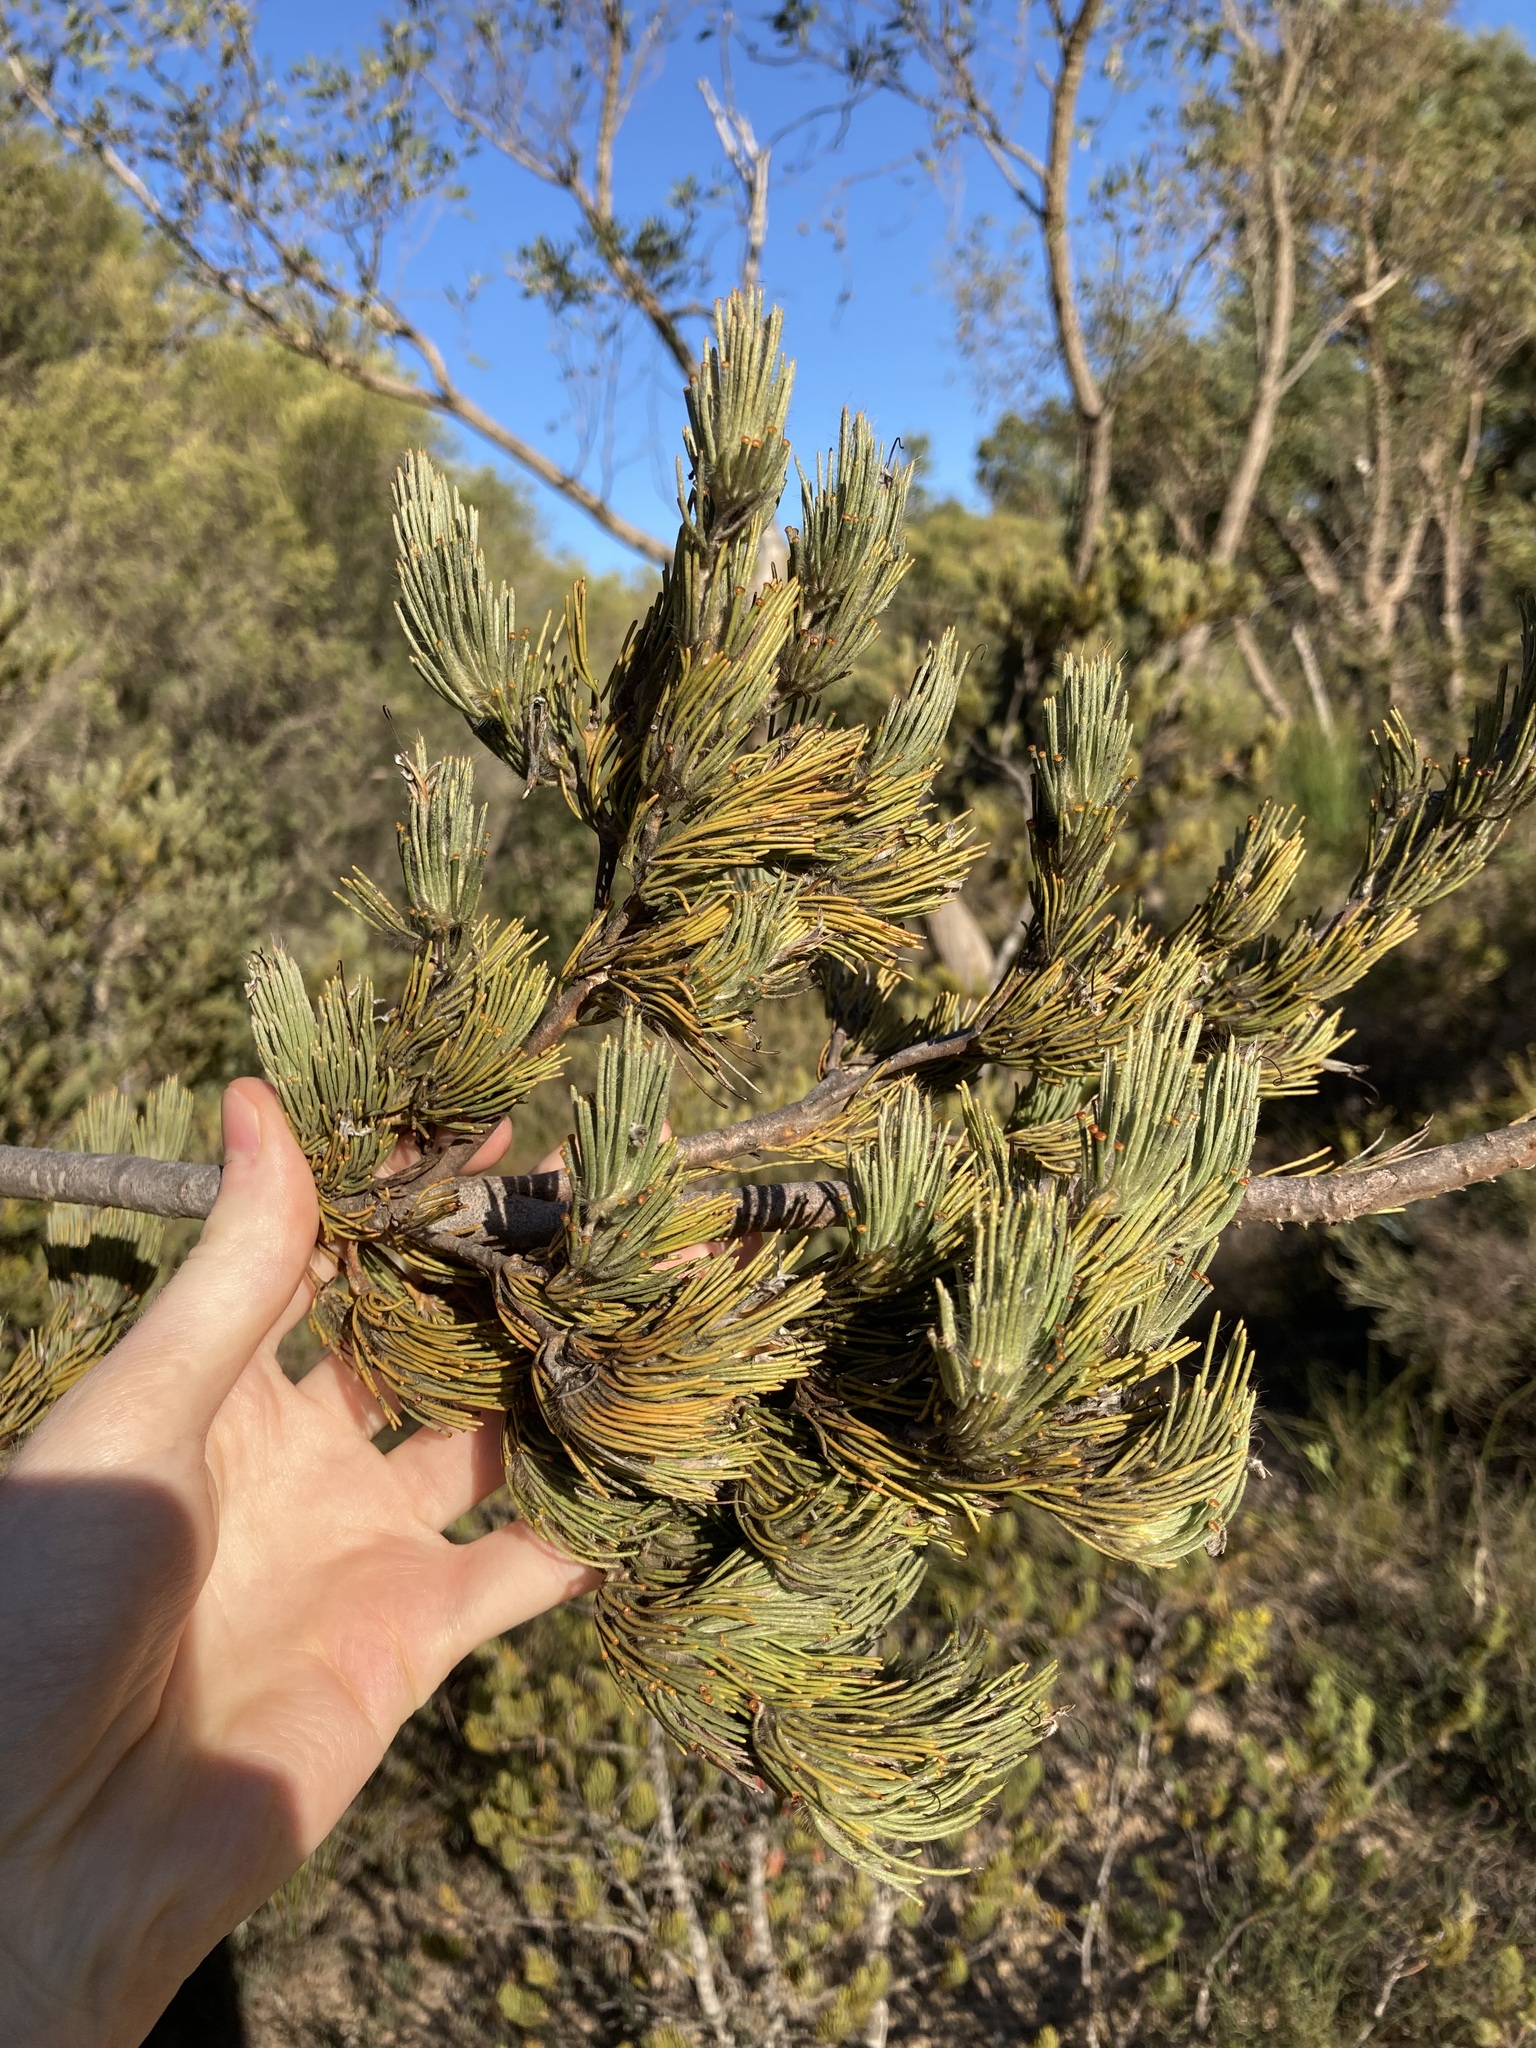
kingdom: Plantae
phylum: Tracheophyta
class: Magnoliopsida
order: Proteales
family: Proteaceae
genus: Adenanthos
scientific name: Adenanthos cygnorum
